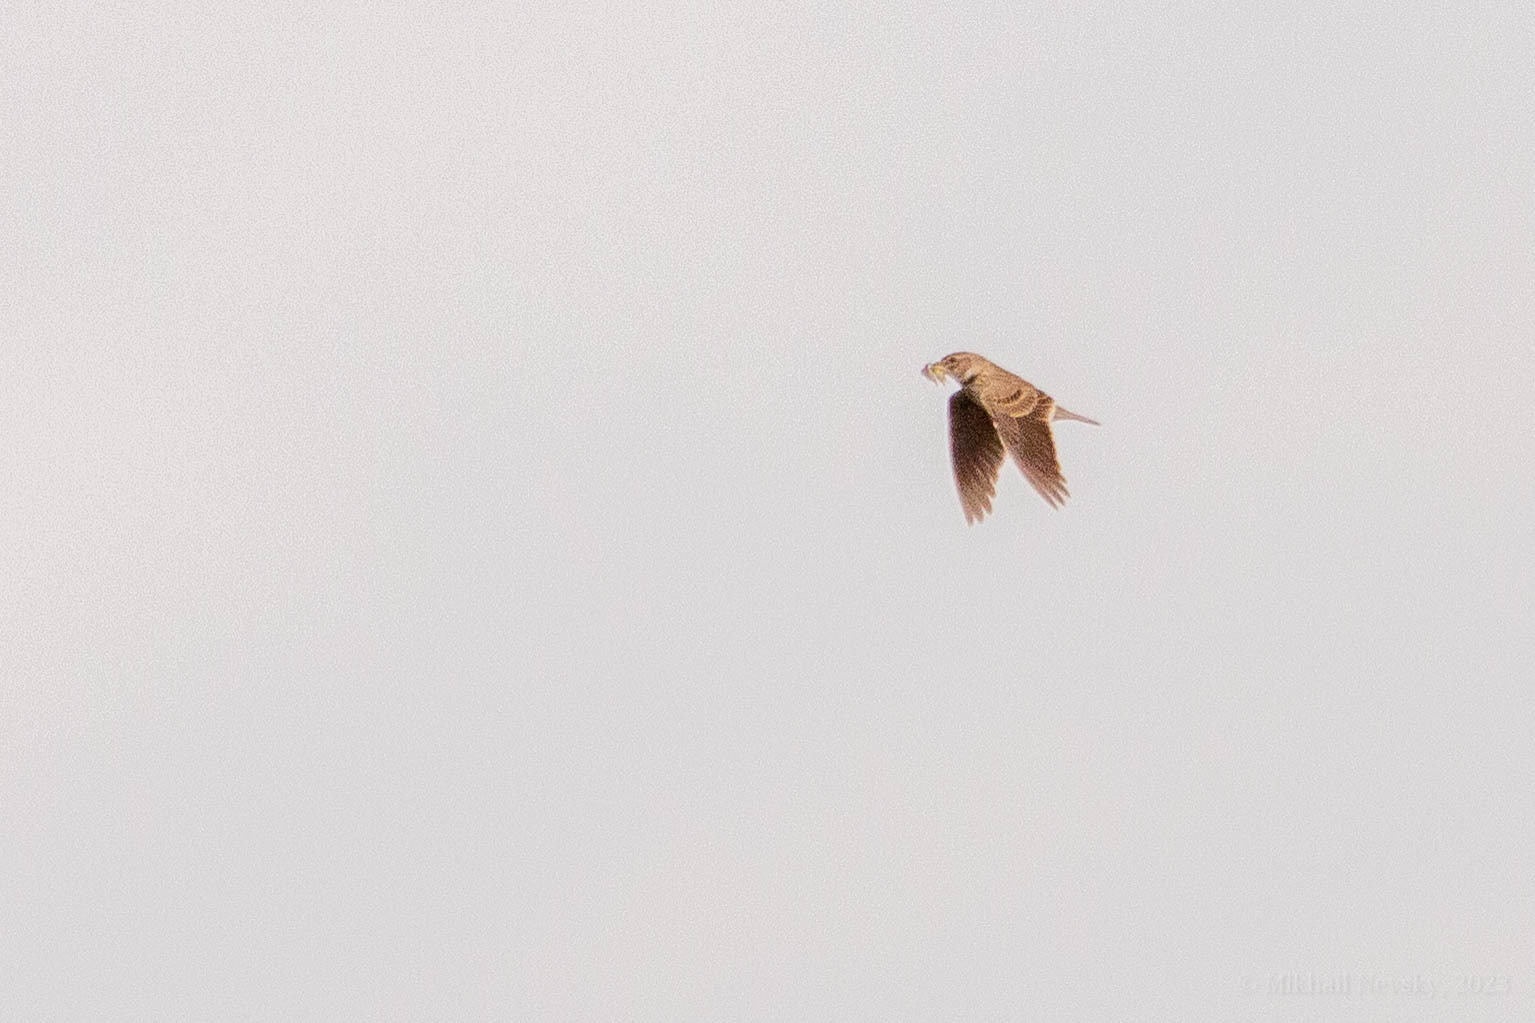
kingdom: Animalia
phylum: Chordata
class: Aves
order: Passeriformes
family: Alaudidae
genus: Melanocorypha
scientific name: Melanocorypha calandra
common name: Calandra lark
